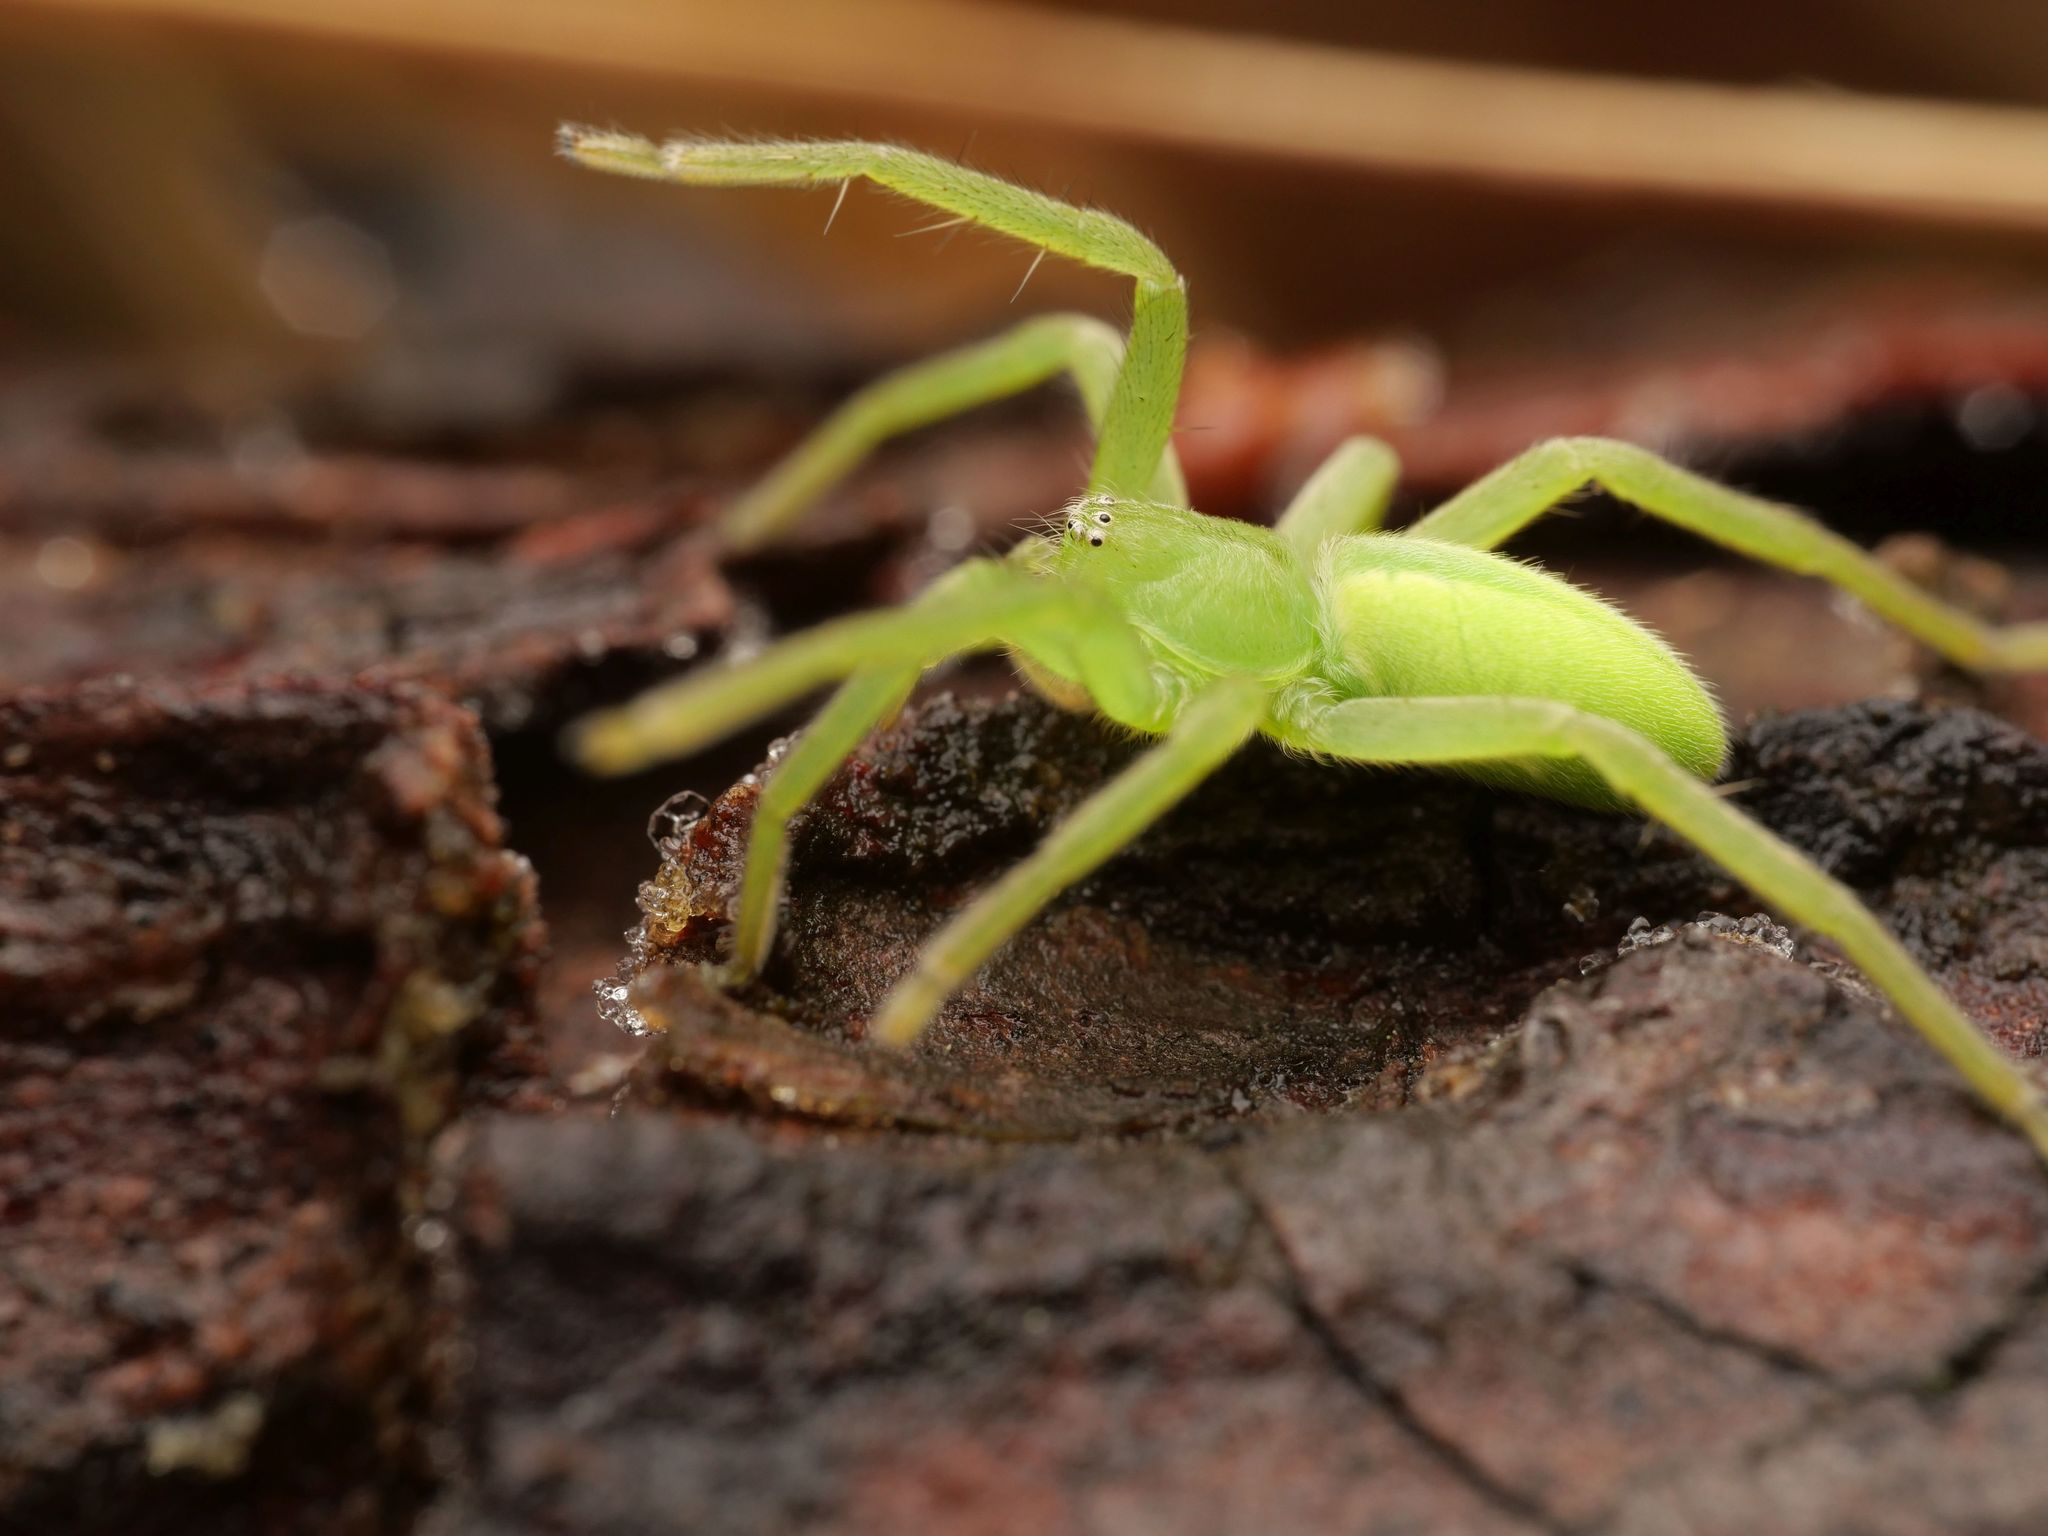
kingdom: Animalia
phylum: Arthropoda
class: Arachnida
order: Araneae
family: Sparassidae
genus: Micrommata
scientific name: Micrommata virescens
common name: Green spider
